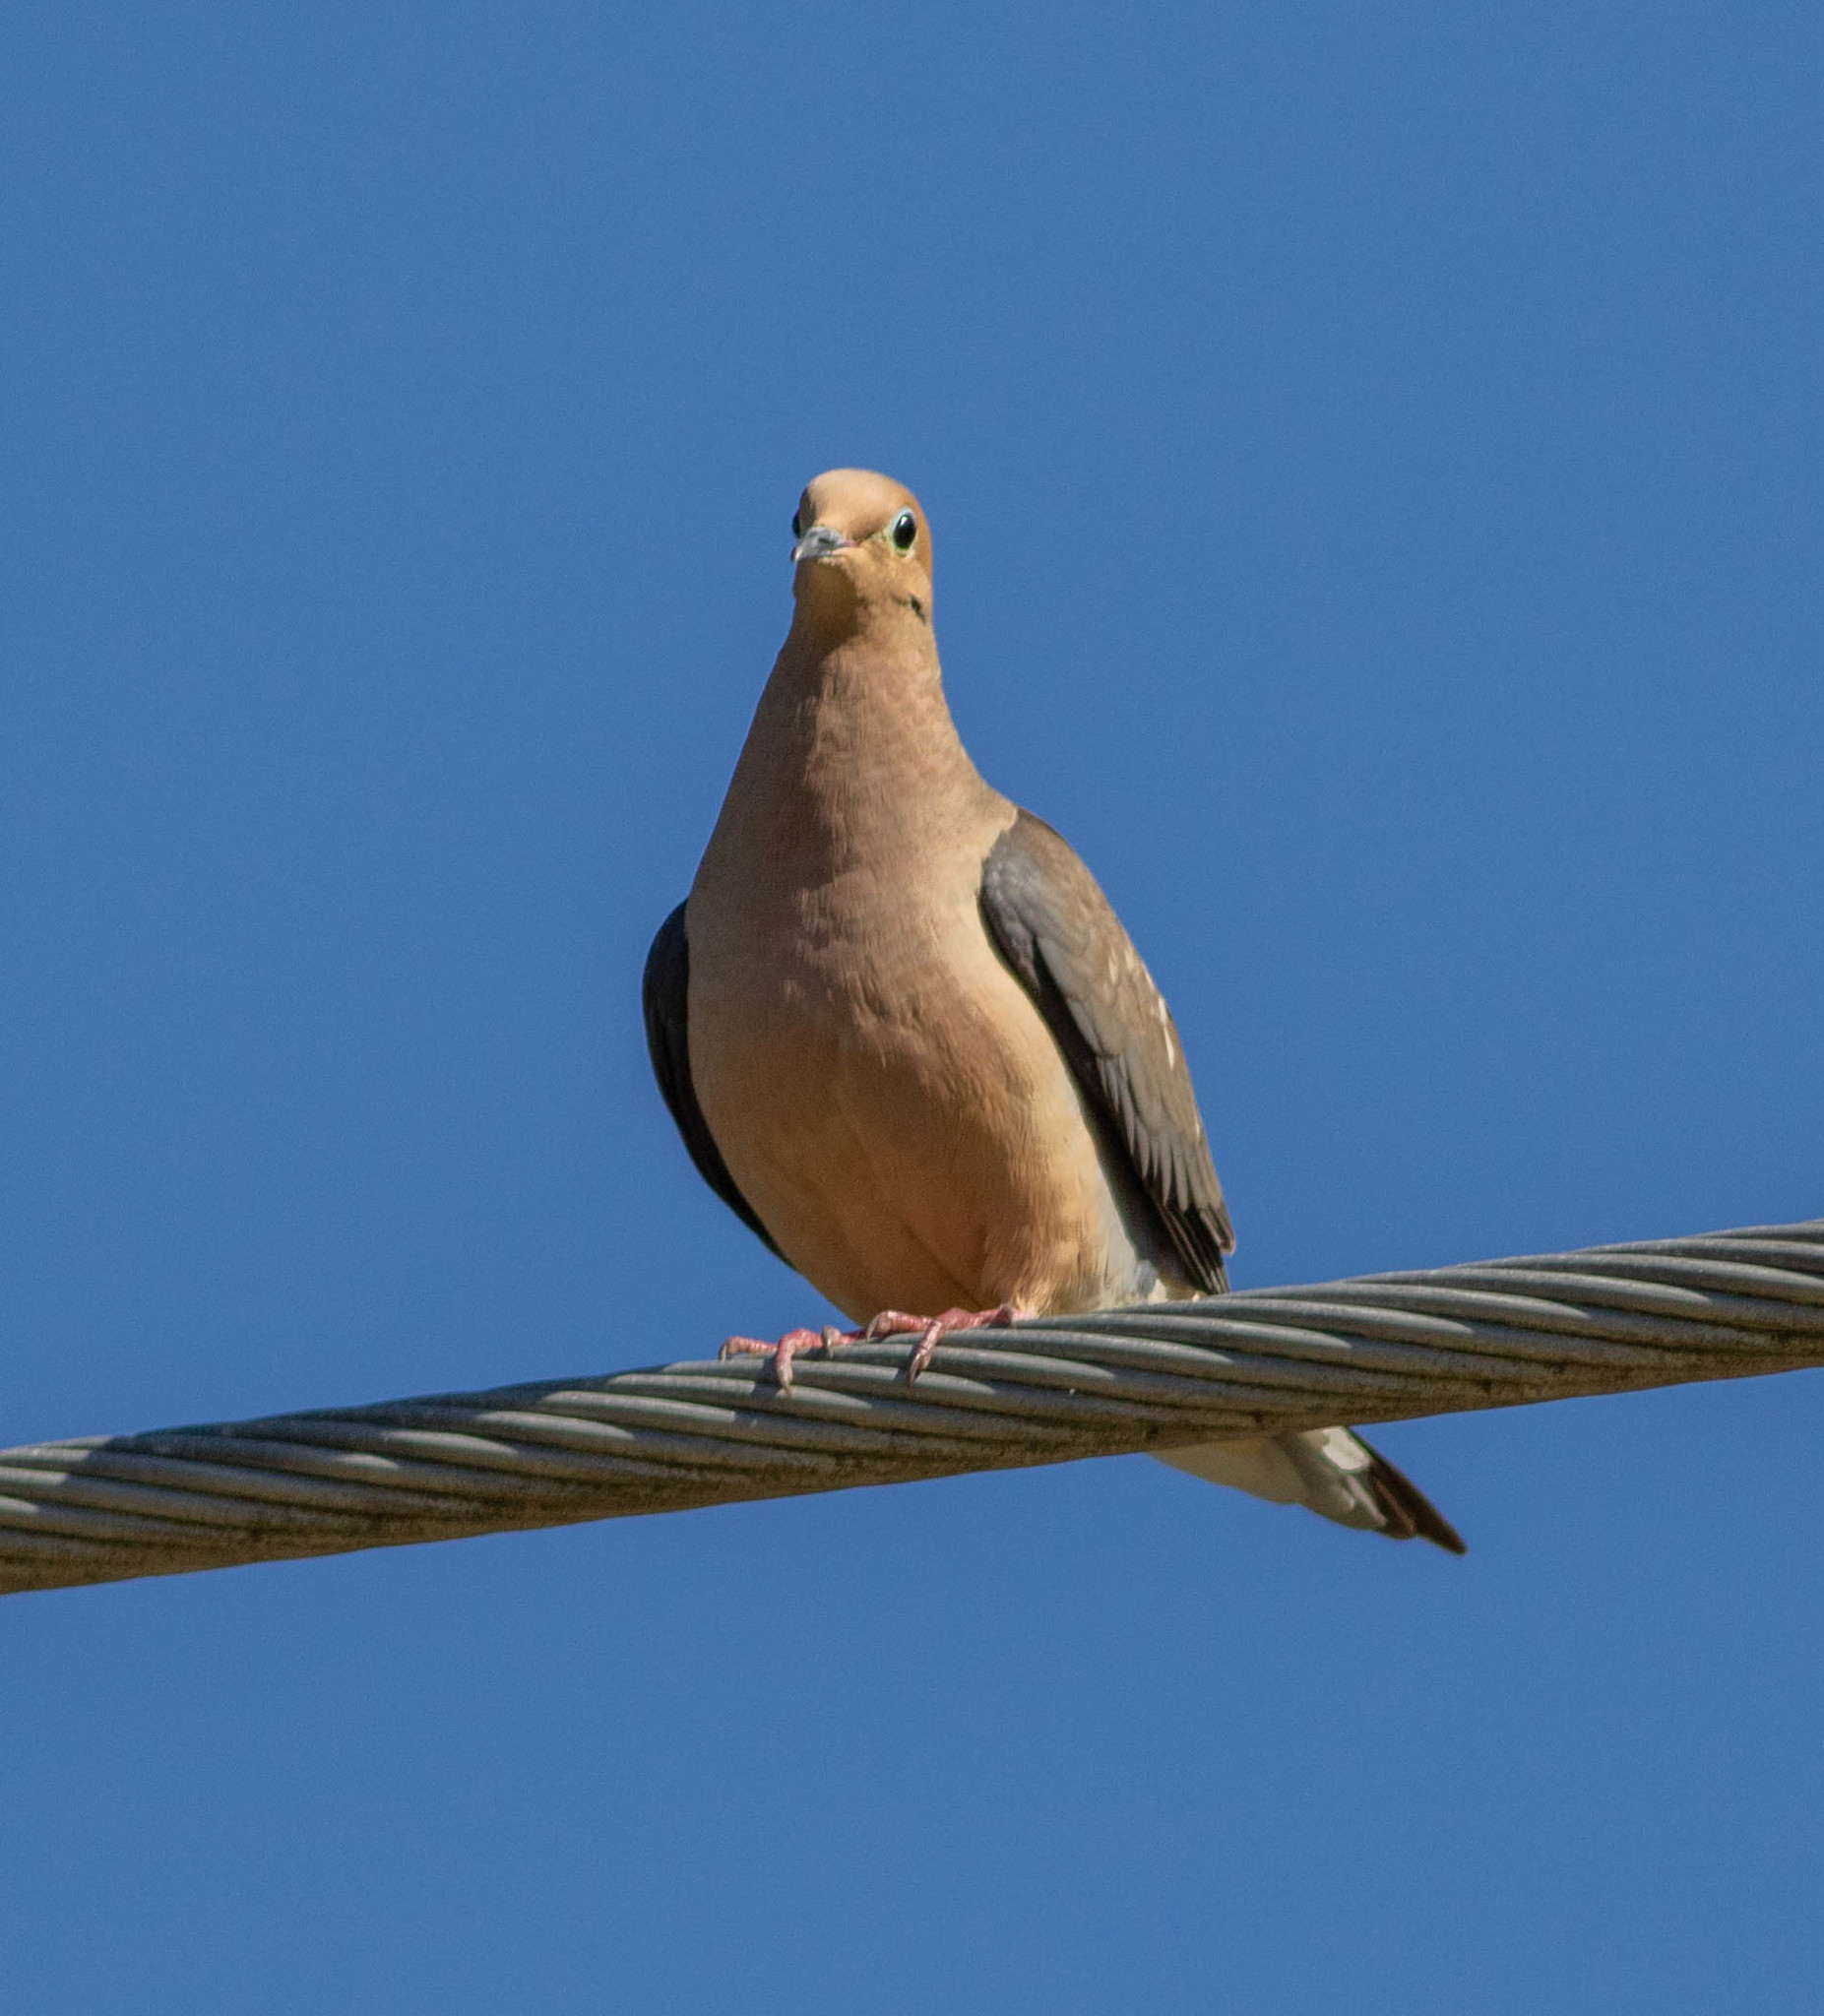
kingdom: Animalia
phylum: Chordata
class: Aves
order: Columbiformes
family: Columbidae
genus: Zenaida
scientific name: Zenaida macroura
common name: Mourning dove
